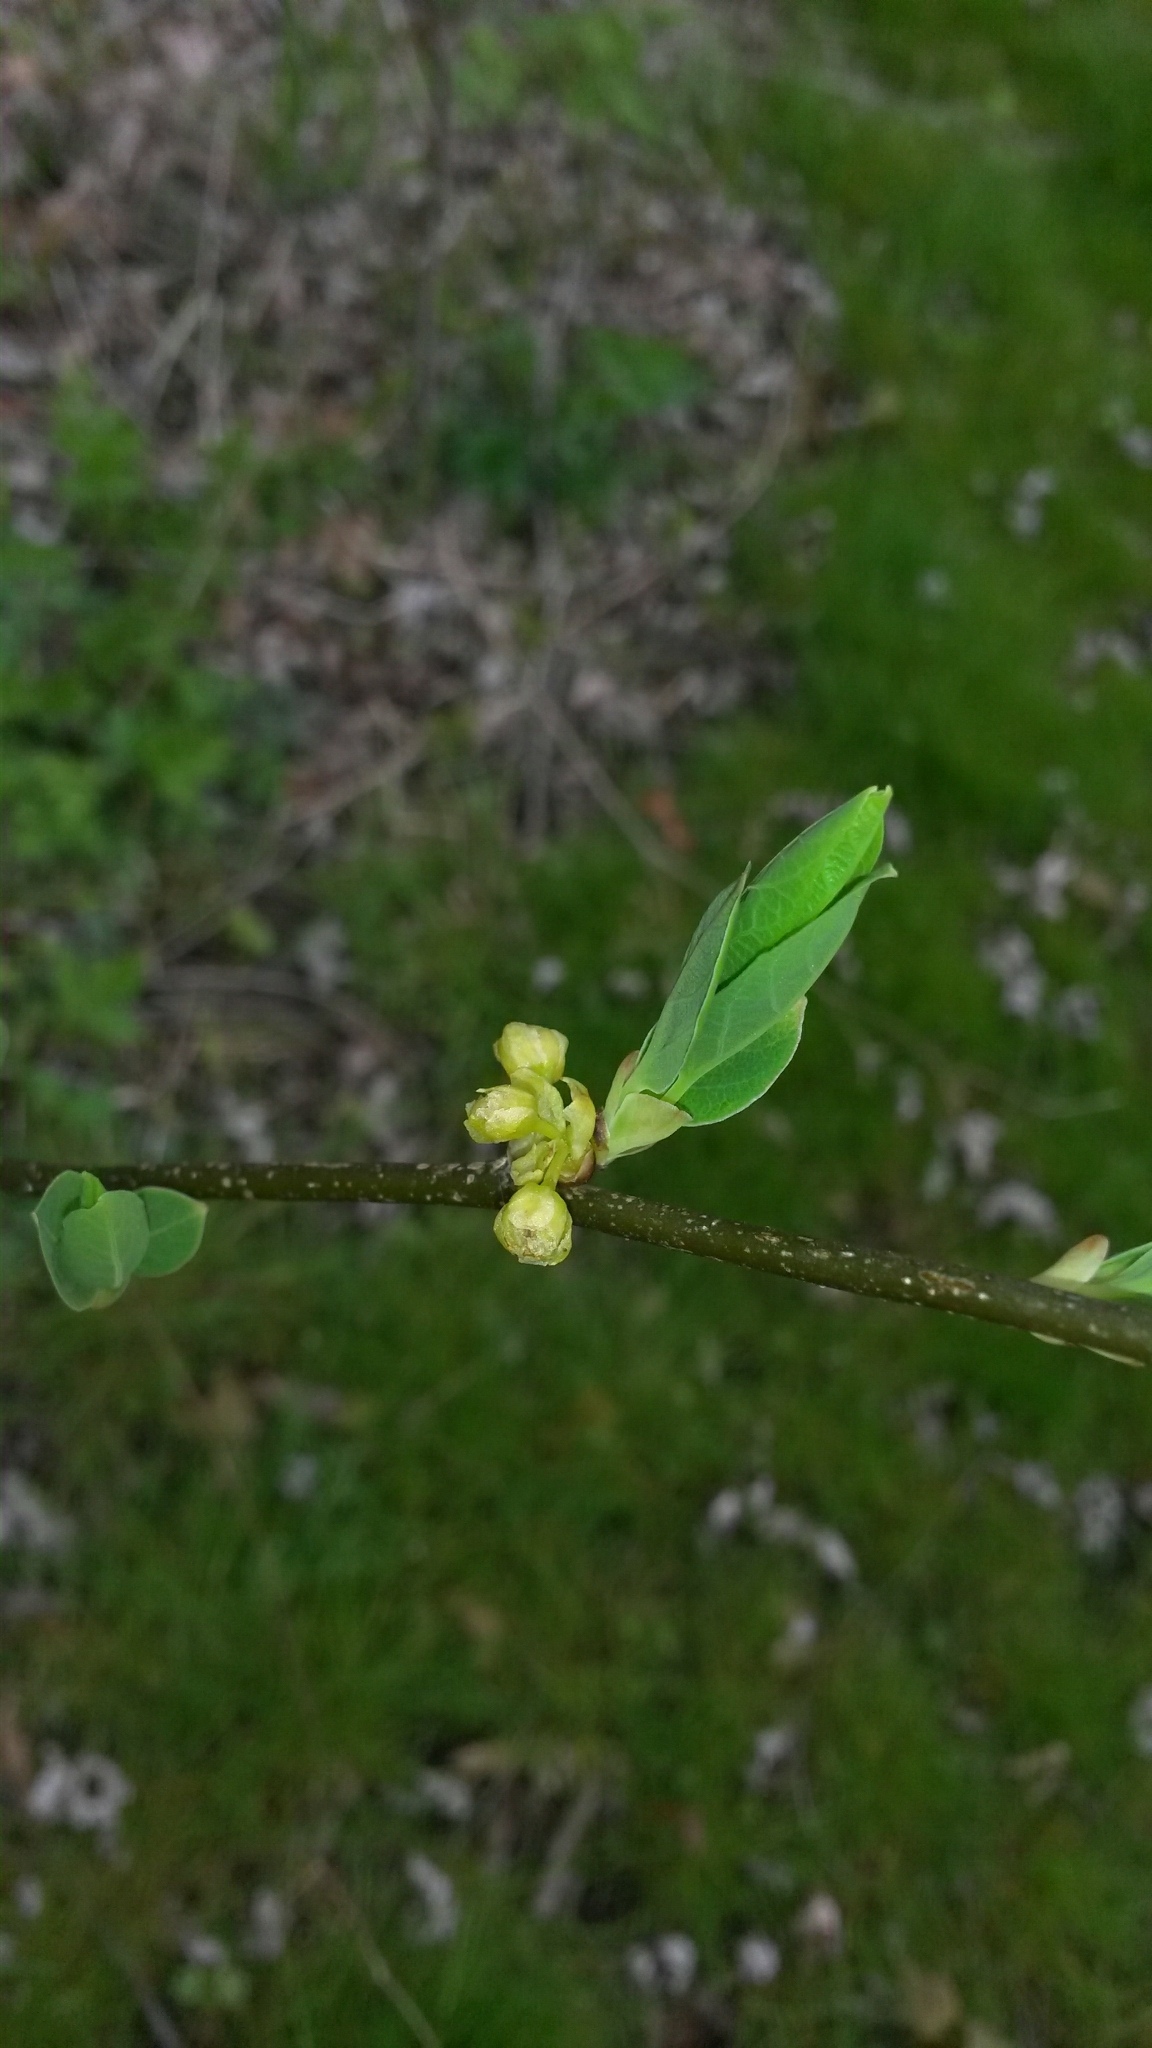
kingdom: Plantae
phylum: Tracheophyta
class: Magnoliopsida
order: Laurales
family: Lauraceae
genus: Lindera
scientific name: Lindera benzoin
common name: Spicebush
